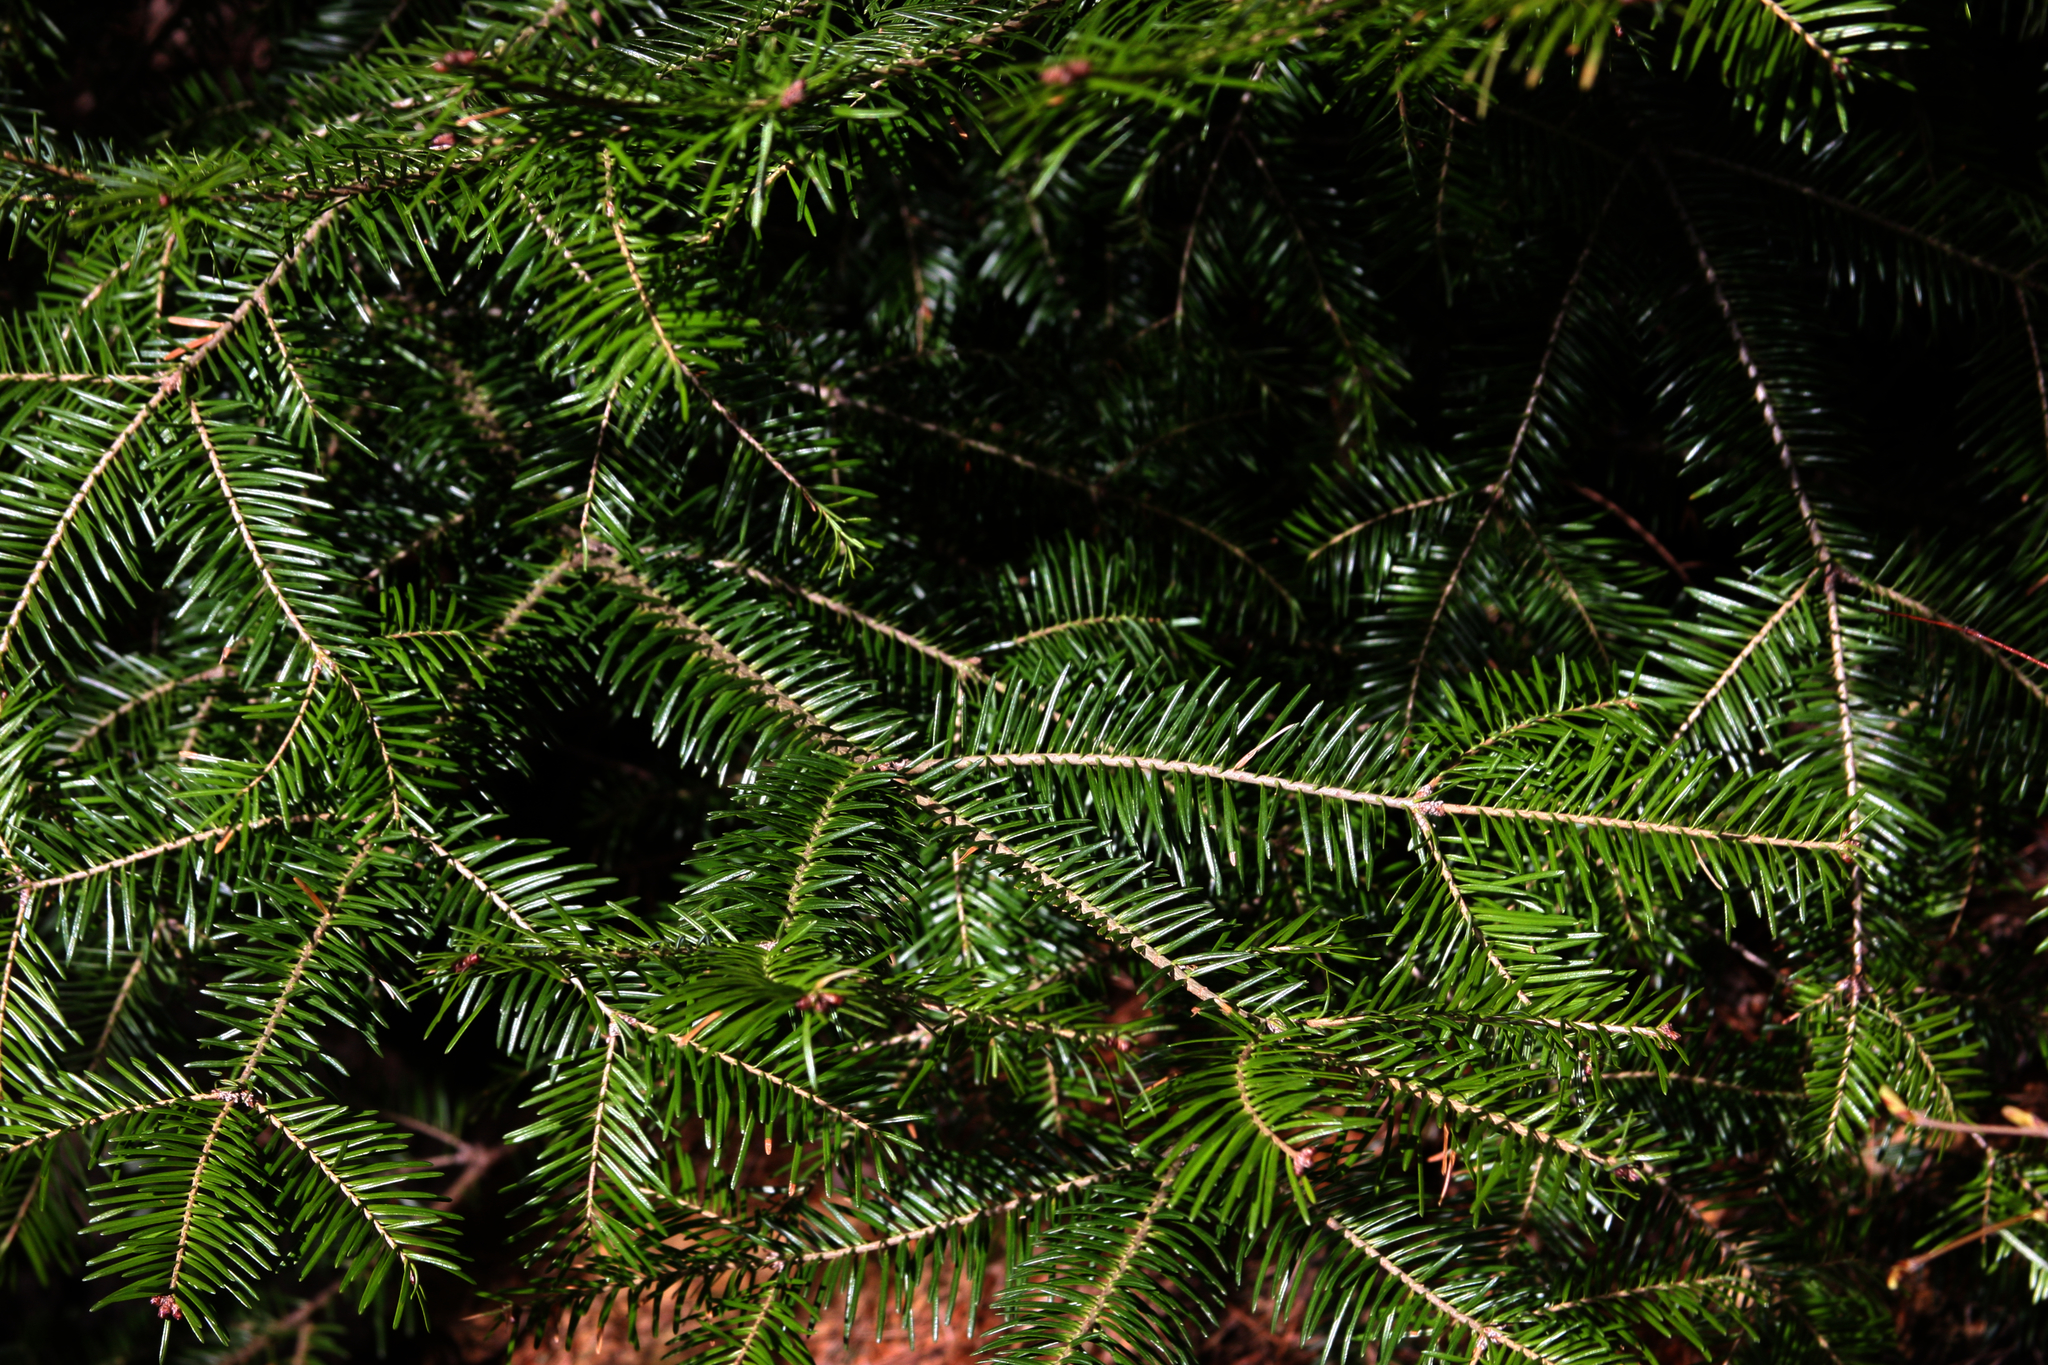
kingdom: Plantae
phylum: Tracheophyta
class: Pinopsida
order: Pinales
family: Pinaceae
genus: Abies
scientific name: Abies balsamea
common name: Balsam fir
